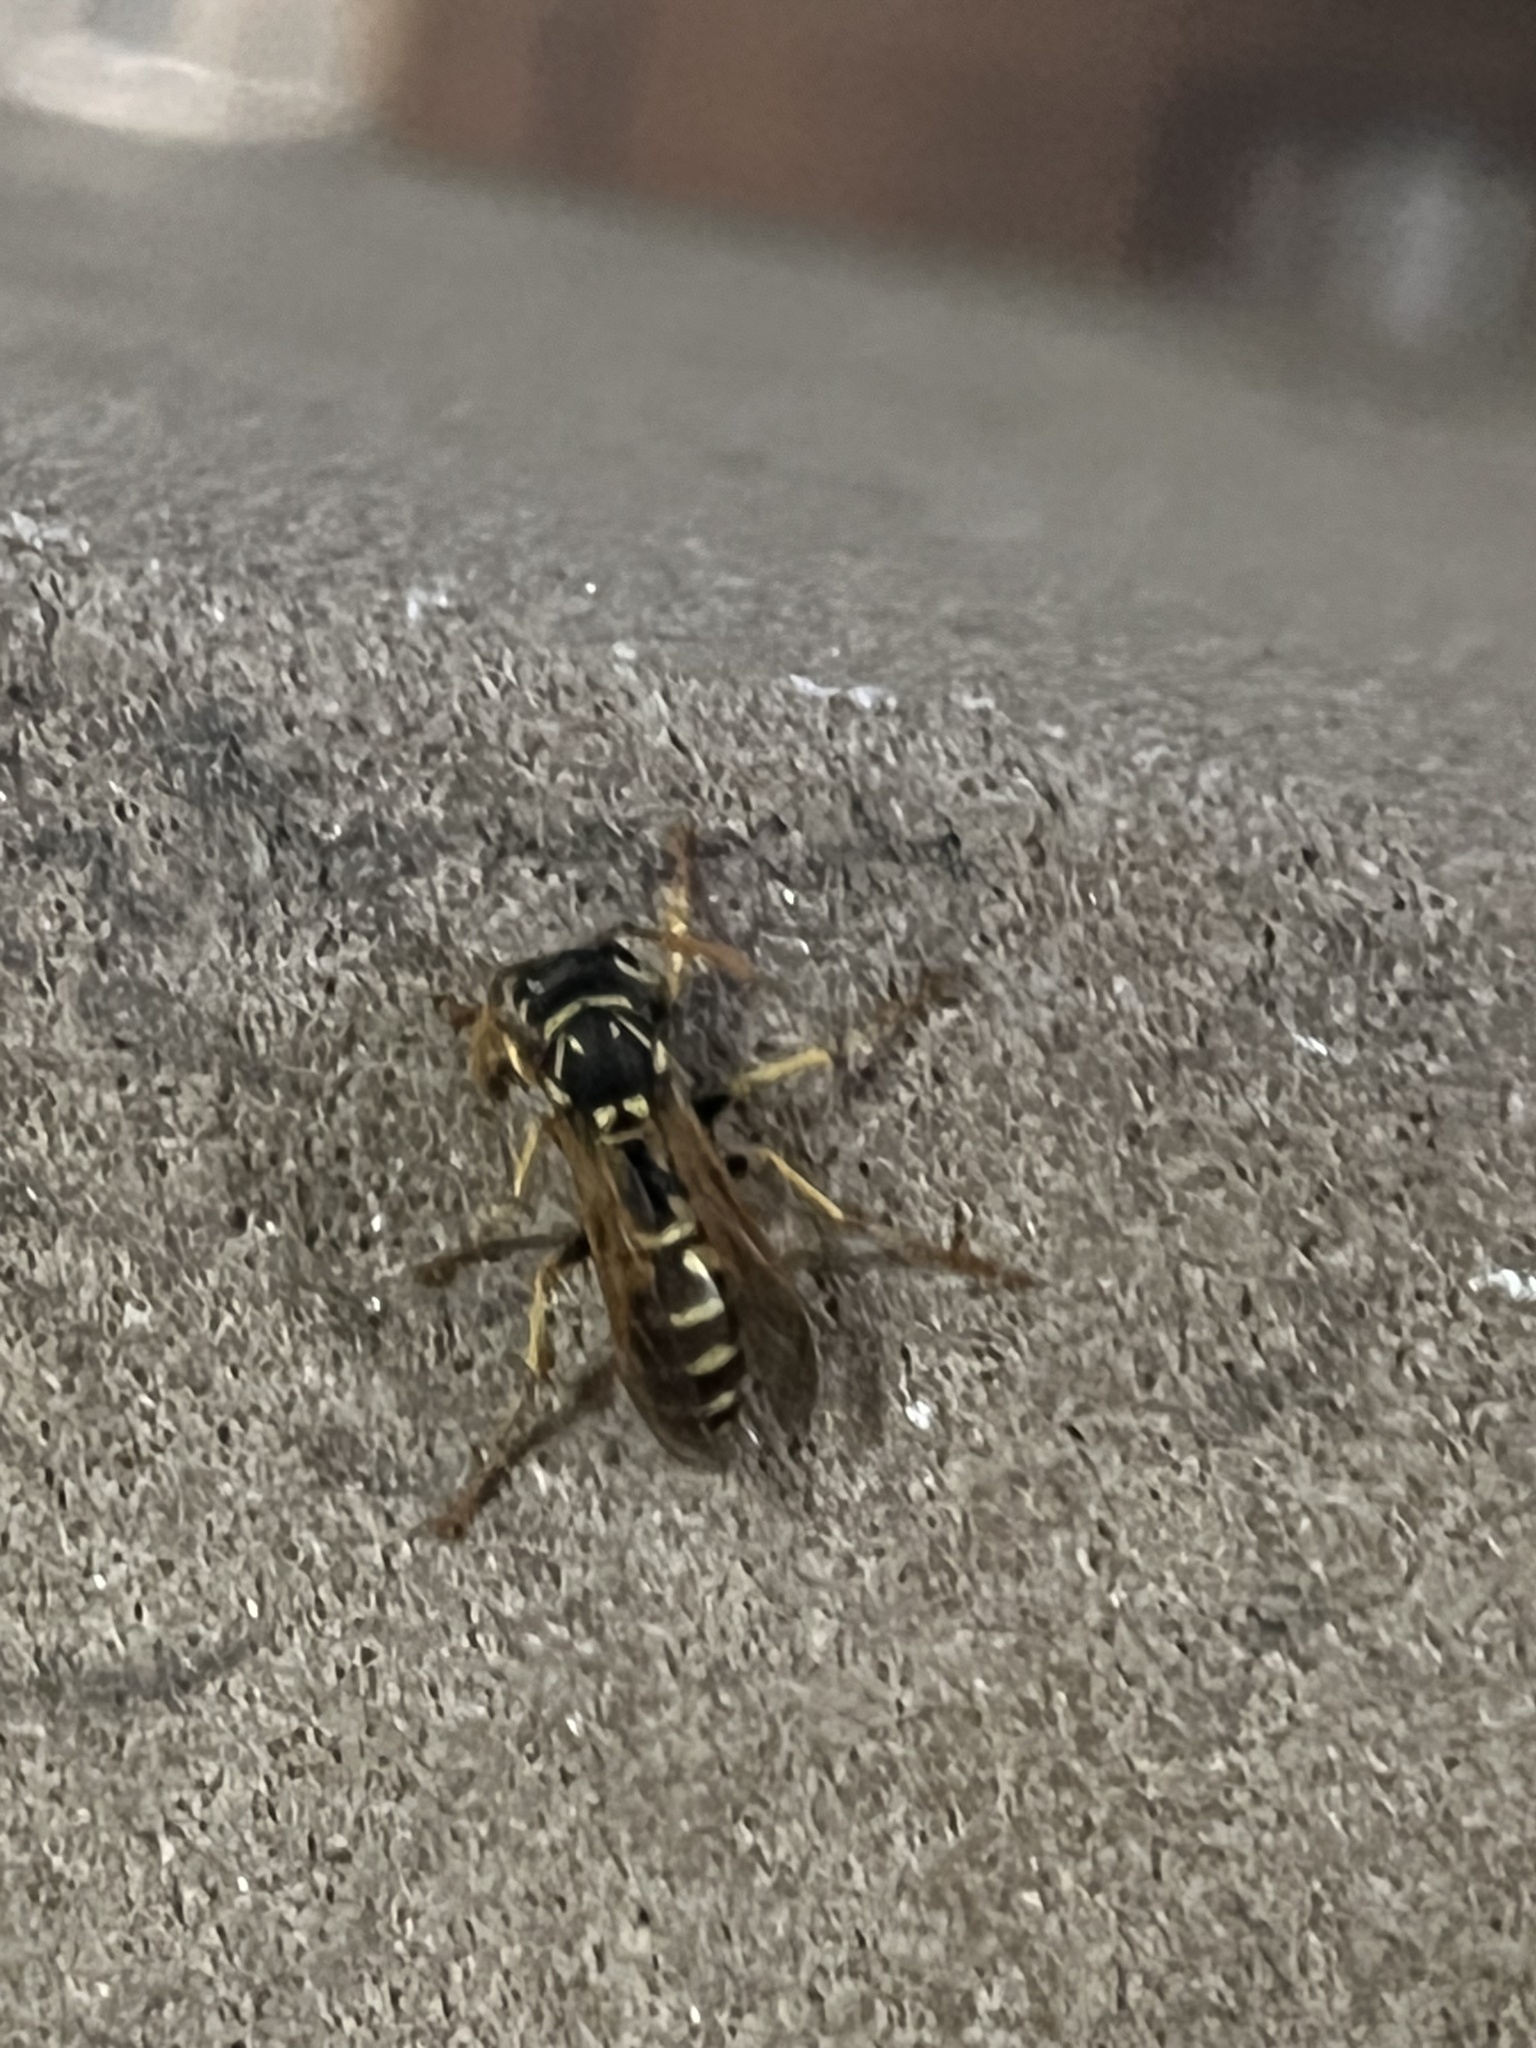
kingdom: Animalia
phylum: Arthropoda
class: Insecta
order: Hymenoptera
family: Eumenidae
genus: Polistes
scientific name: Polistes dominula
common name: Paper wasp
